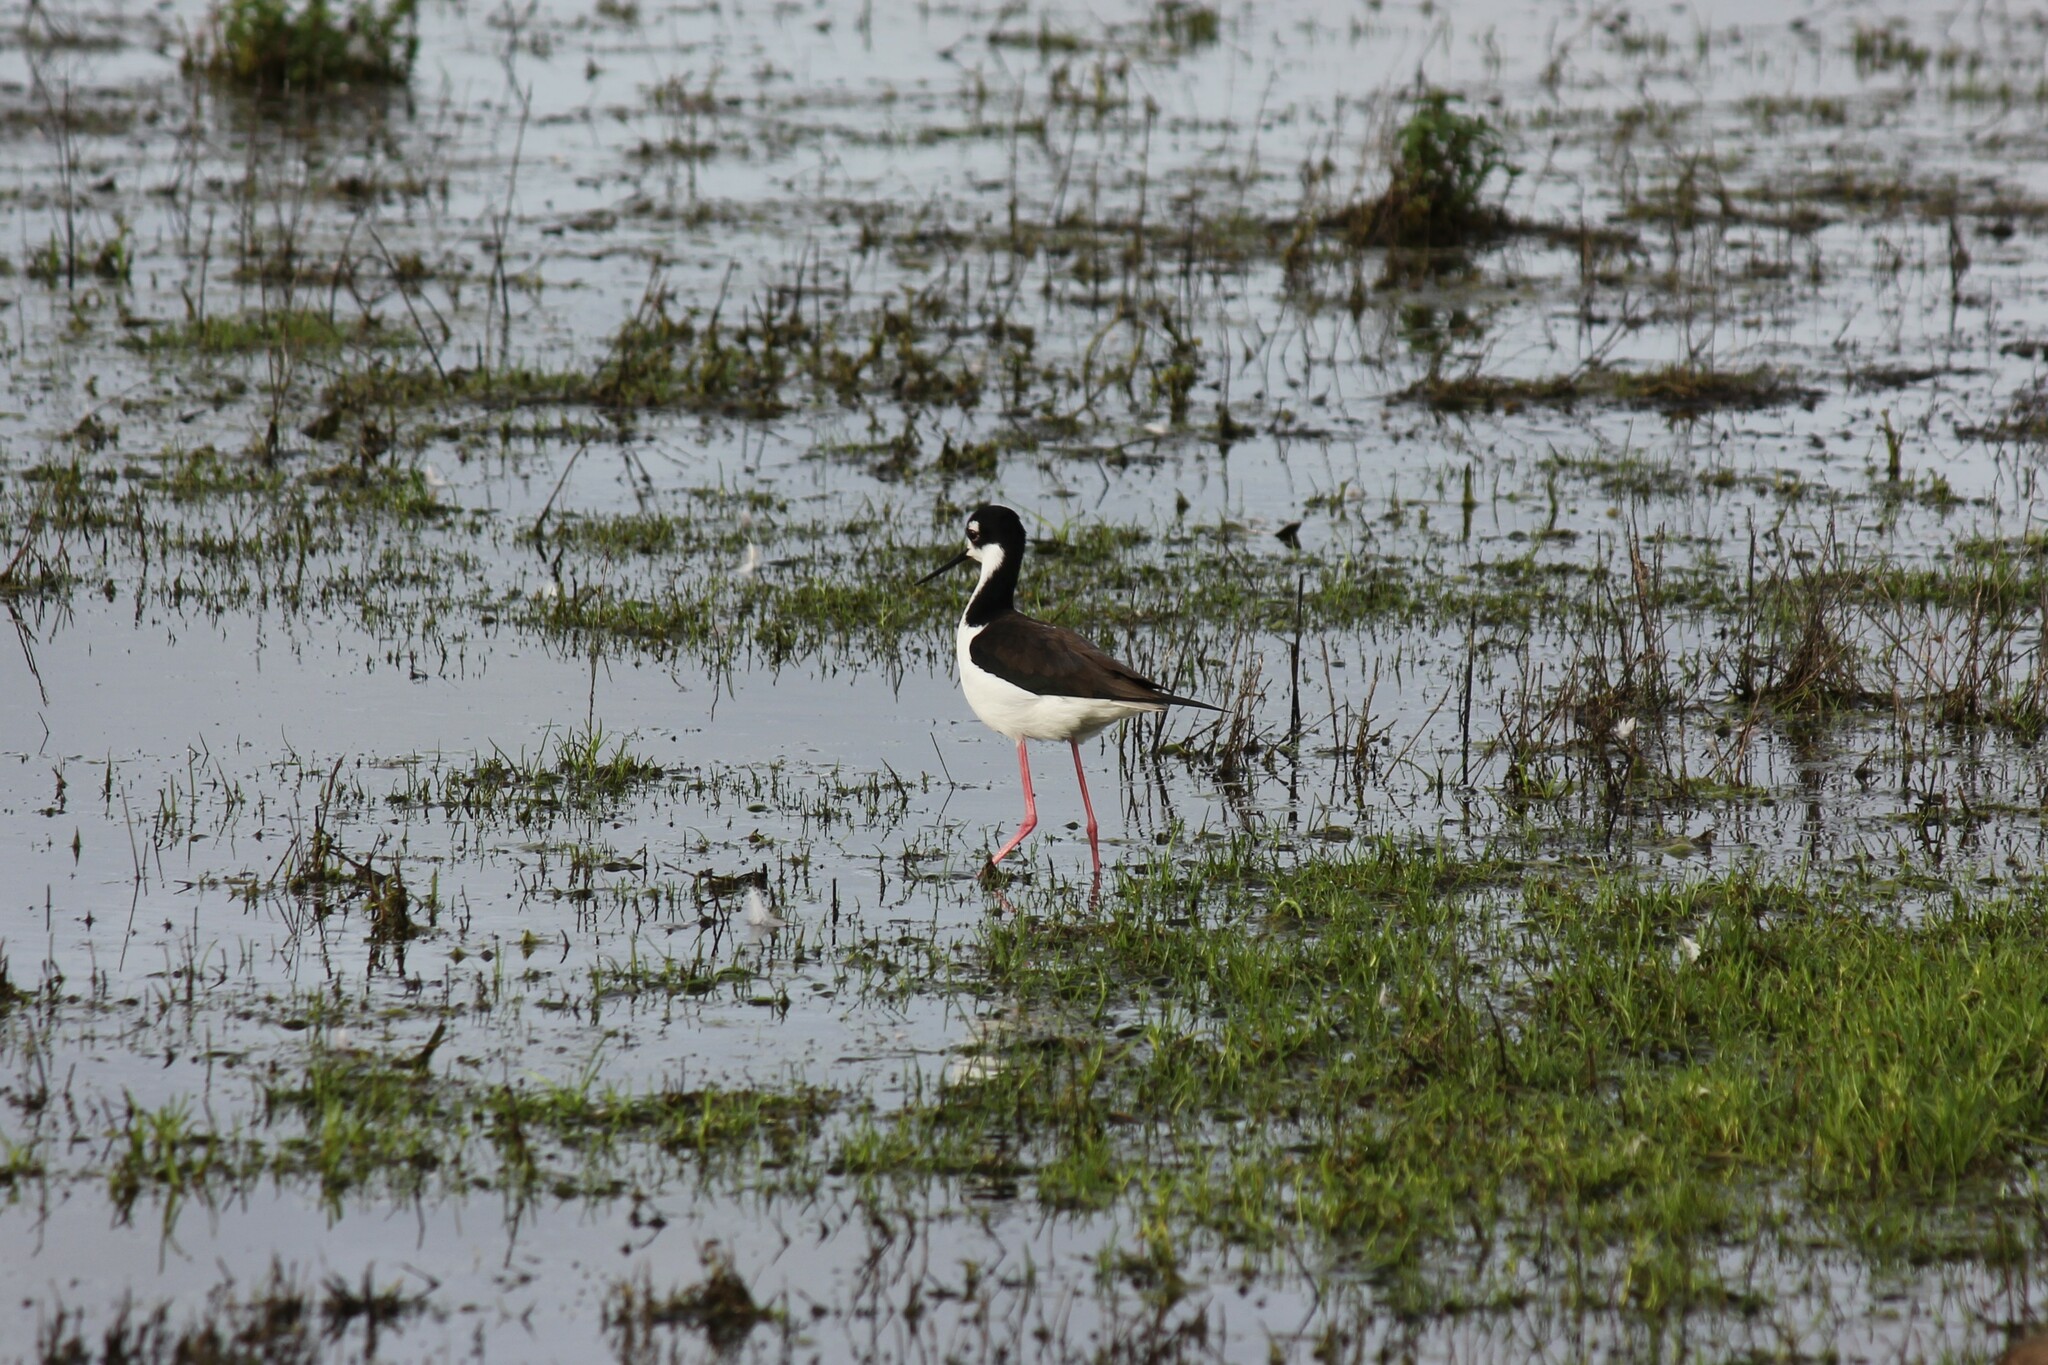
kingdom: Animalia
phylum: Chordata
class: Aves
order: Charadriiformes
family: Recurvirostridae
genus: Himantopus
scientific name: Himantopus mexicanus
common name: Black-necked stilt
